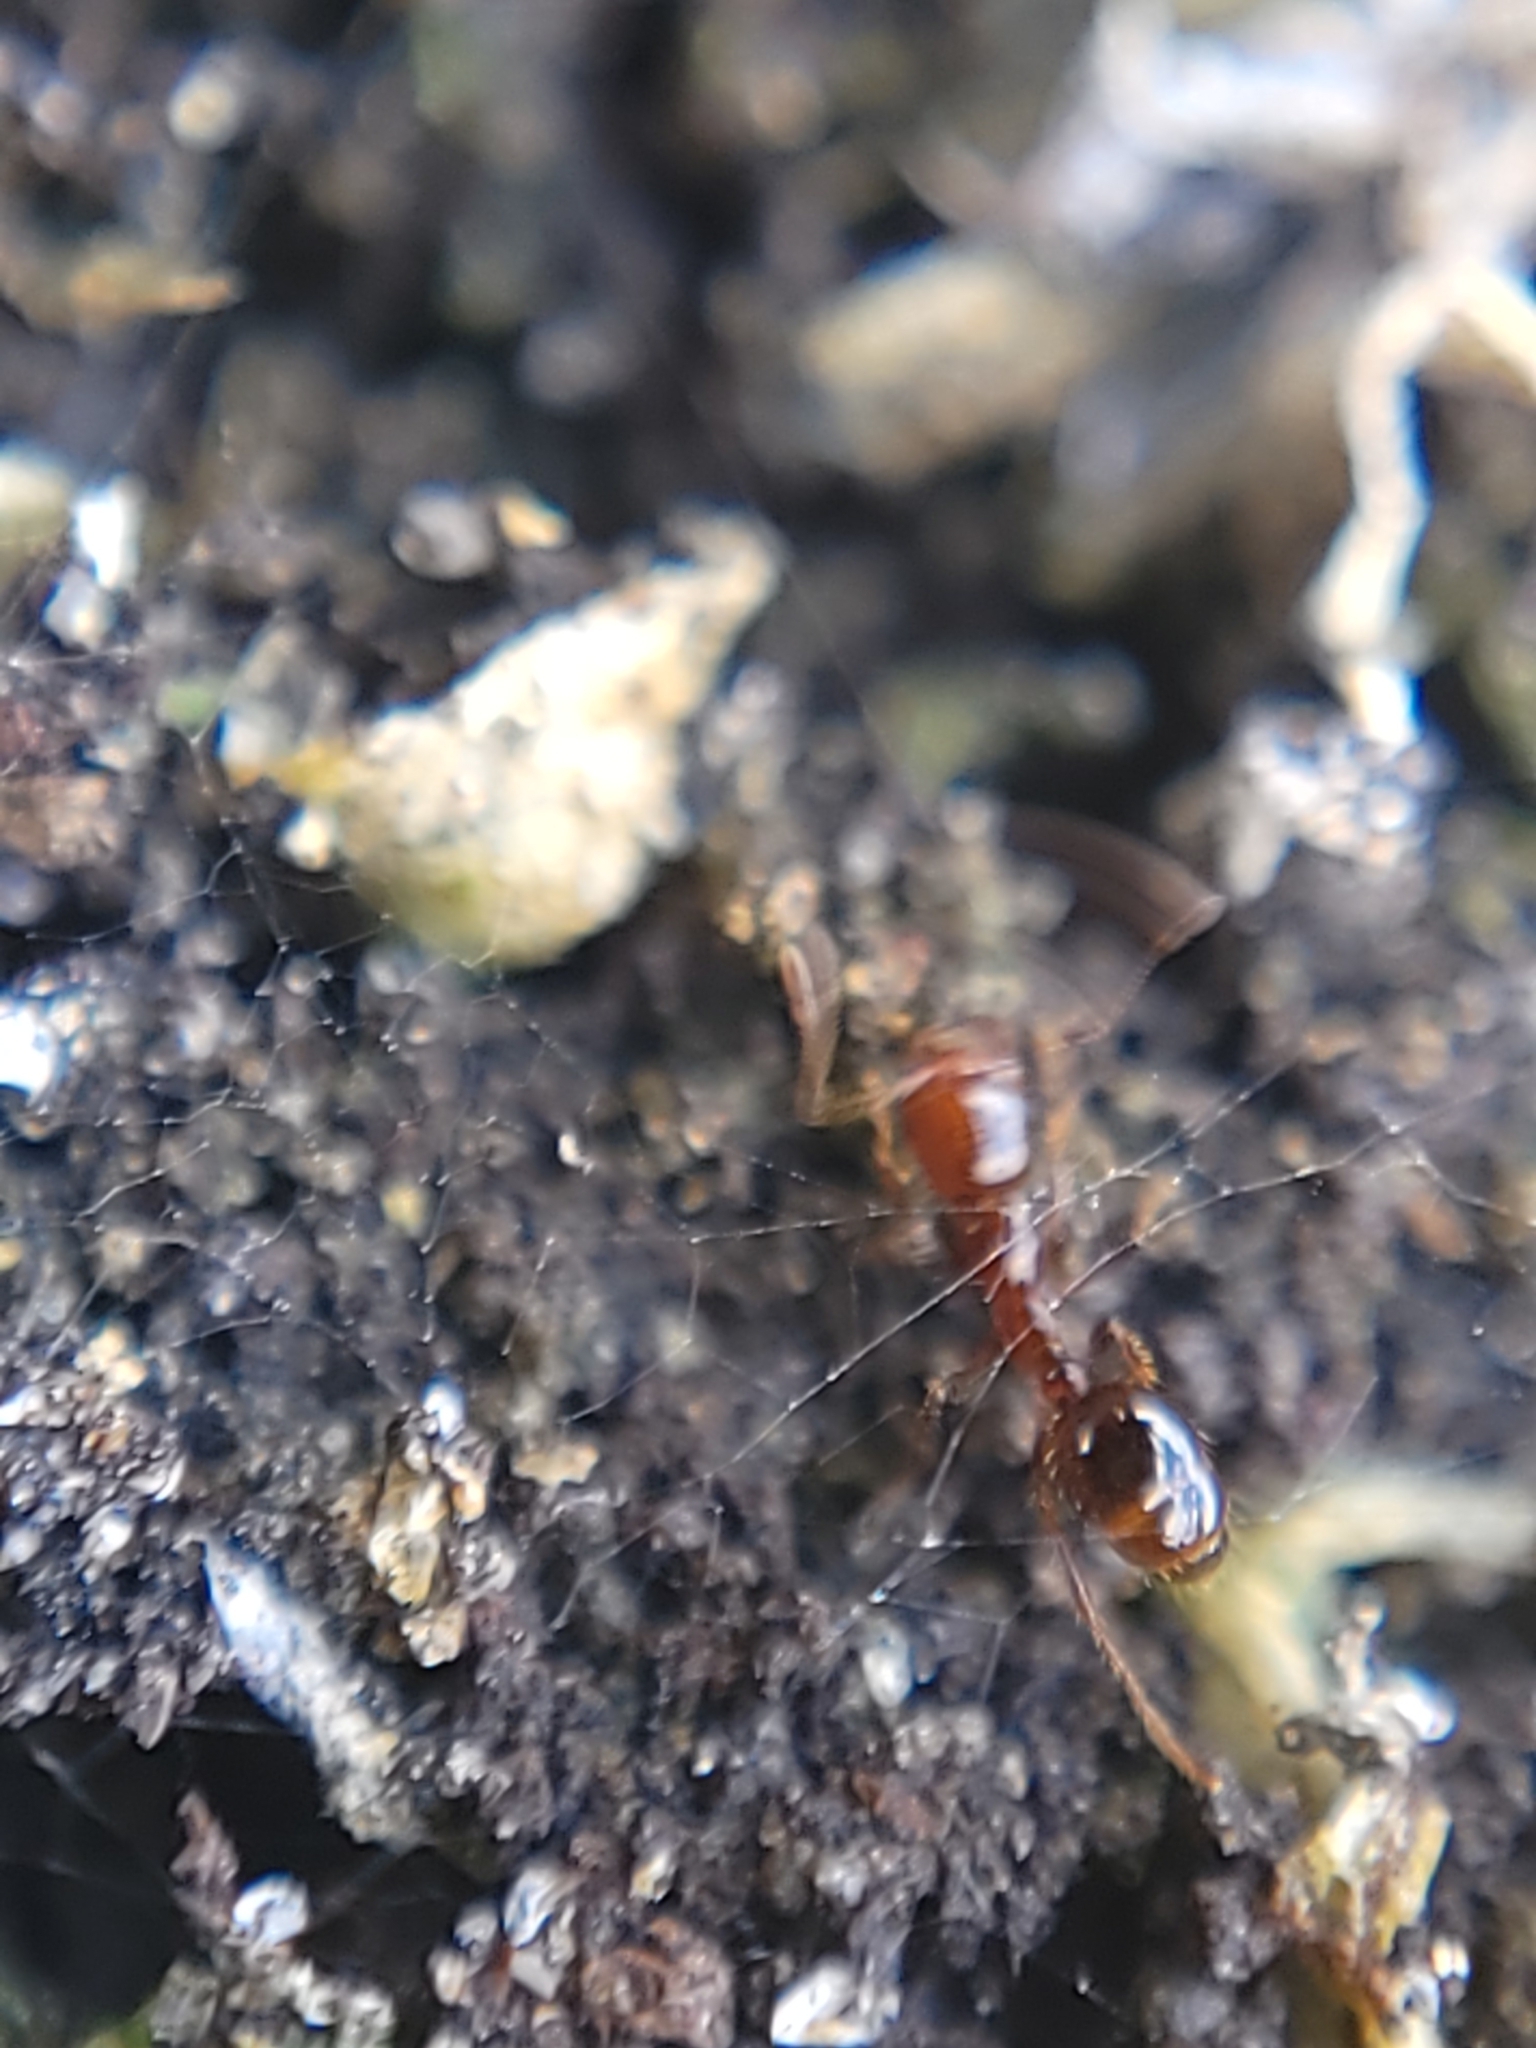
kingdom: Animalia
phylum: Arthropoda
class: Insecta
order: Hymenoptera
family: Formicidae
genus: Solenopsis
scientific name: Solenopsis invicta
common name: Red imported fire ant
